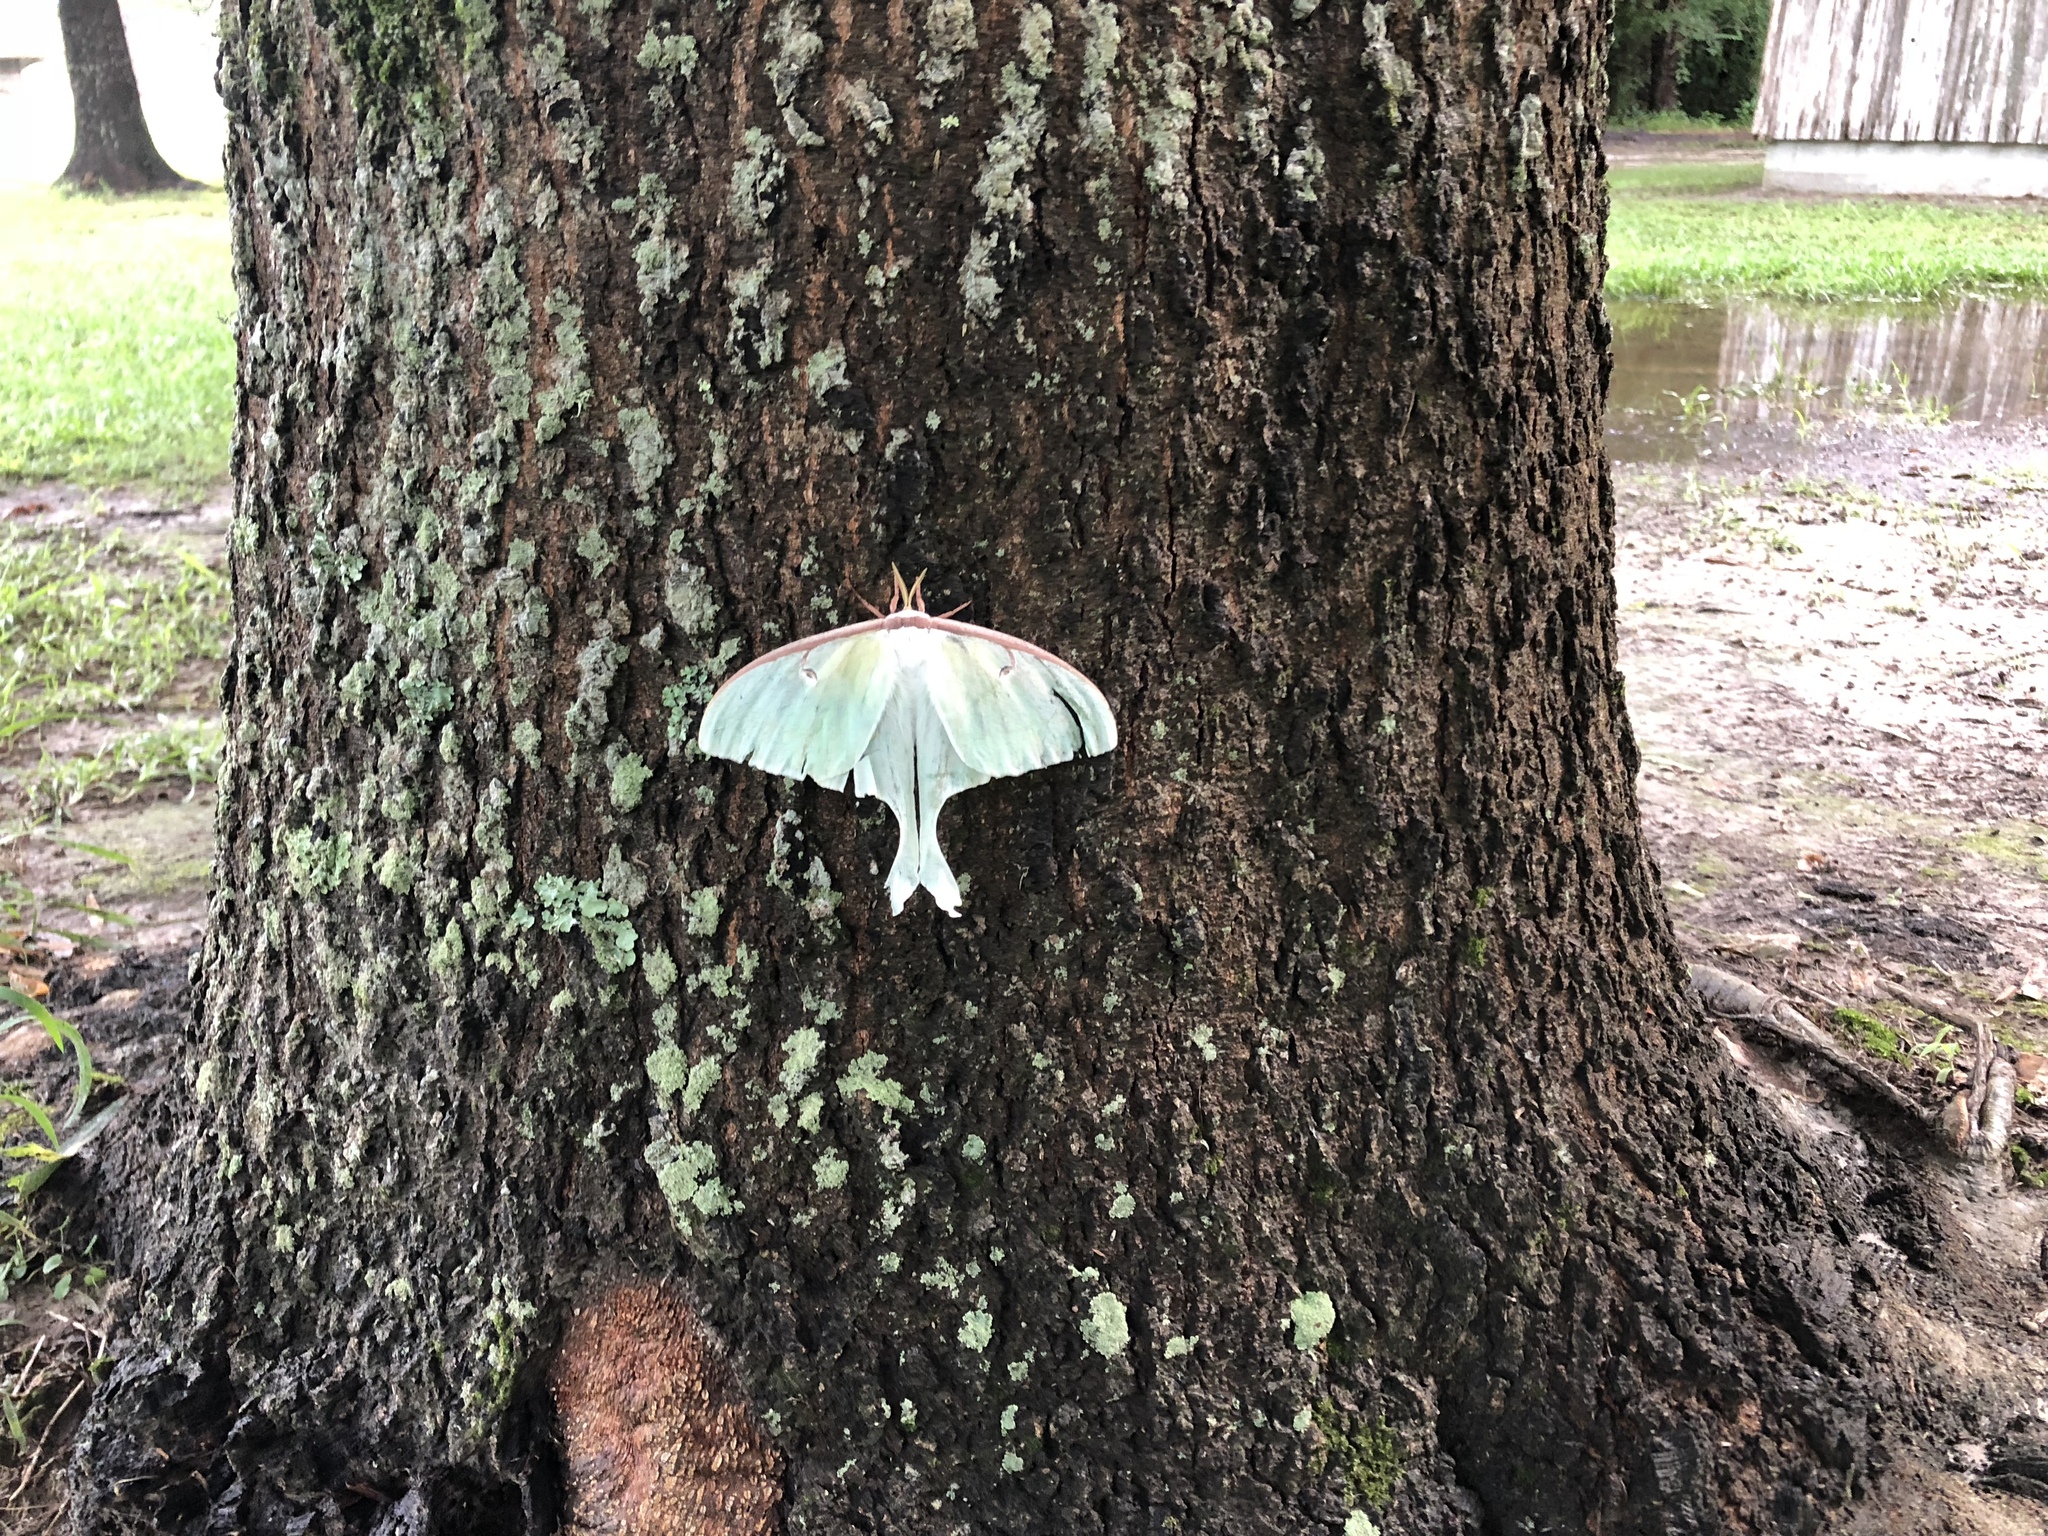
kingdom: Animalia
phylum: Arthropoda
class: Insecta
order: Lepidoptera
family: Saturniidae
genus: Actias
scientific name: Actias luna
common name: Luna moth
